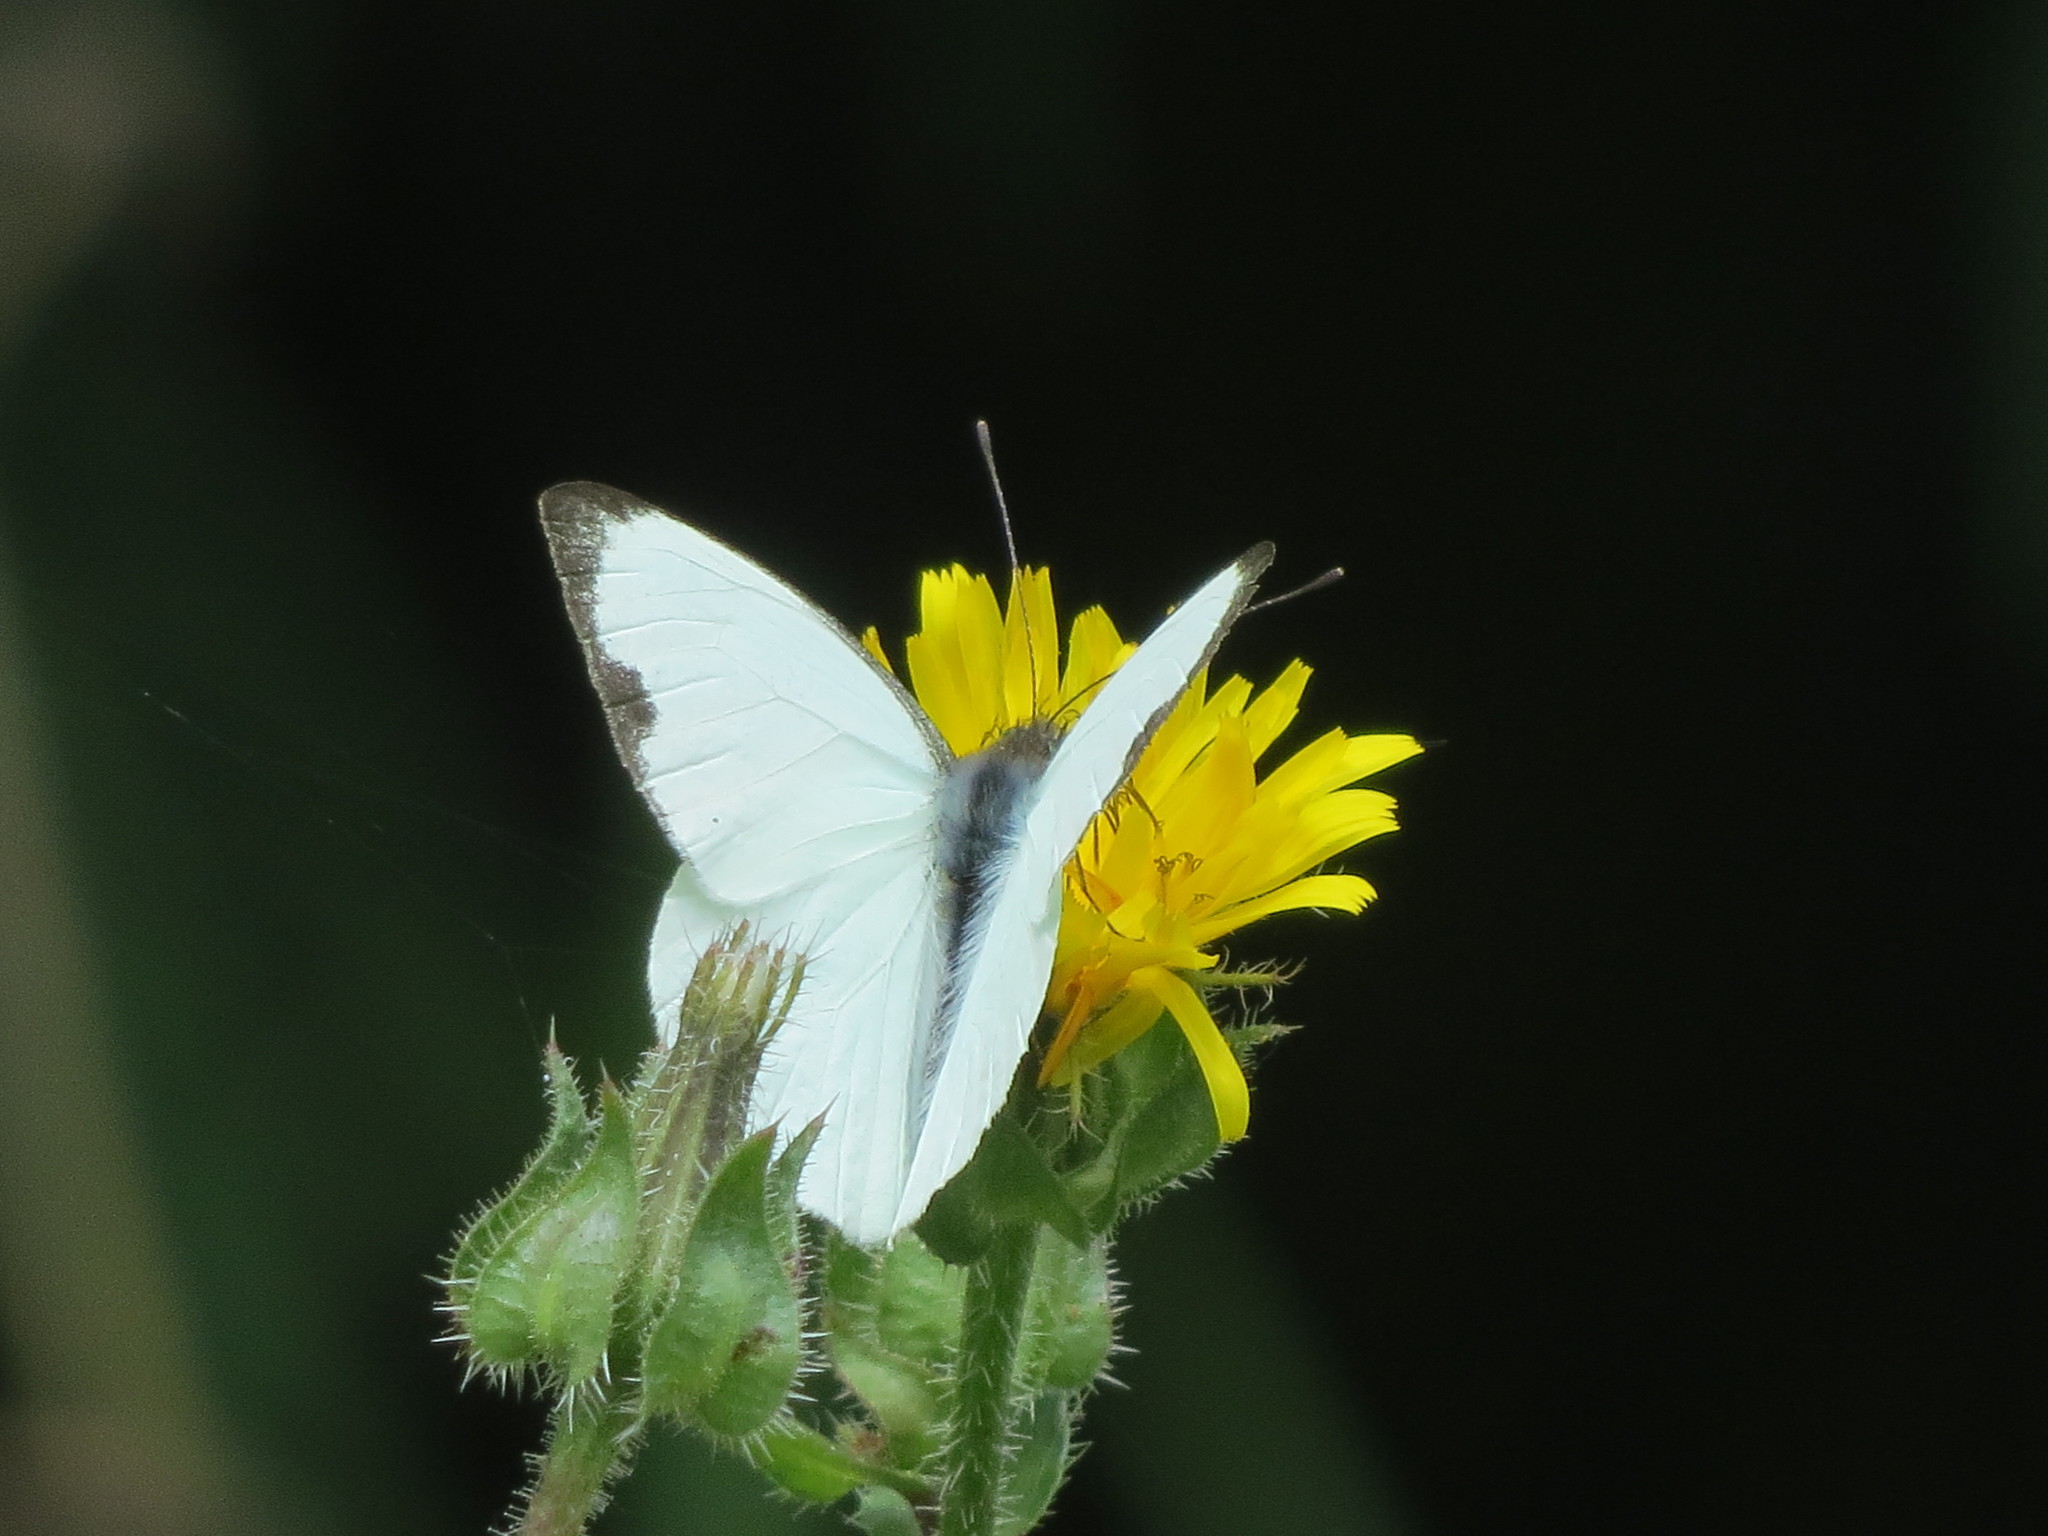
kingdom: Animalia
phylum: Arthropoda
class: Insecta
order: Lepidoptera
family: Pieridae
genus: Leptophobia
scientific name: Leptophobia aripa
